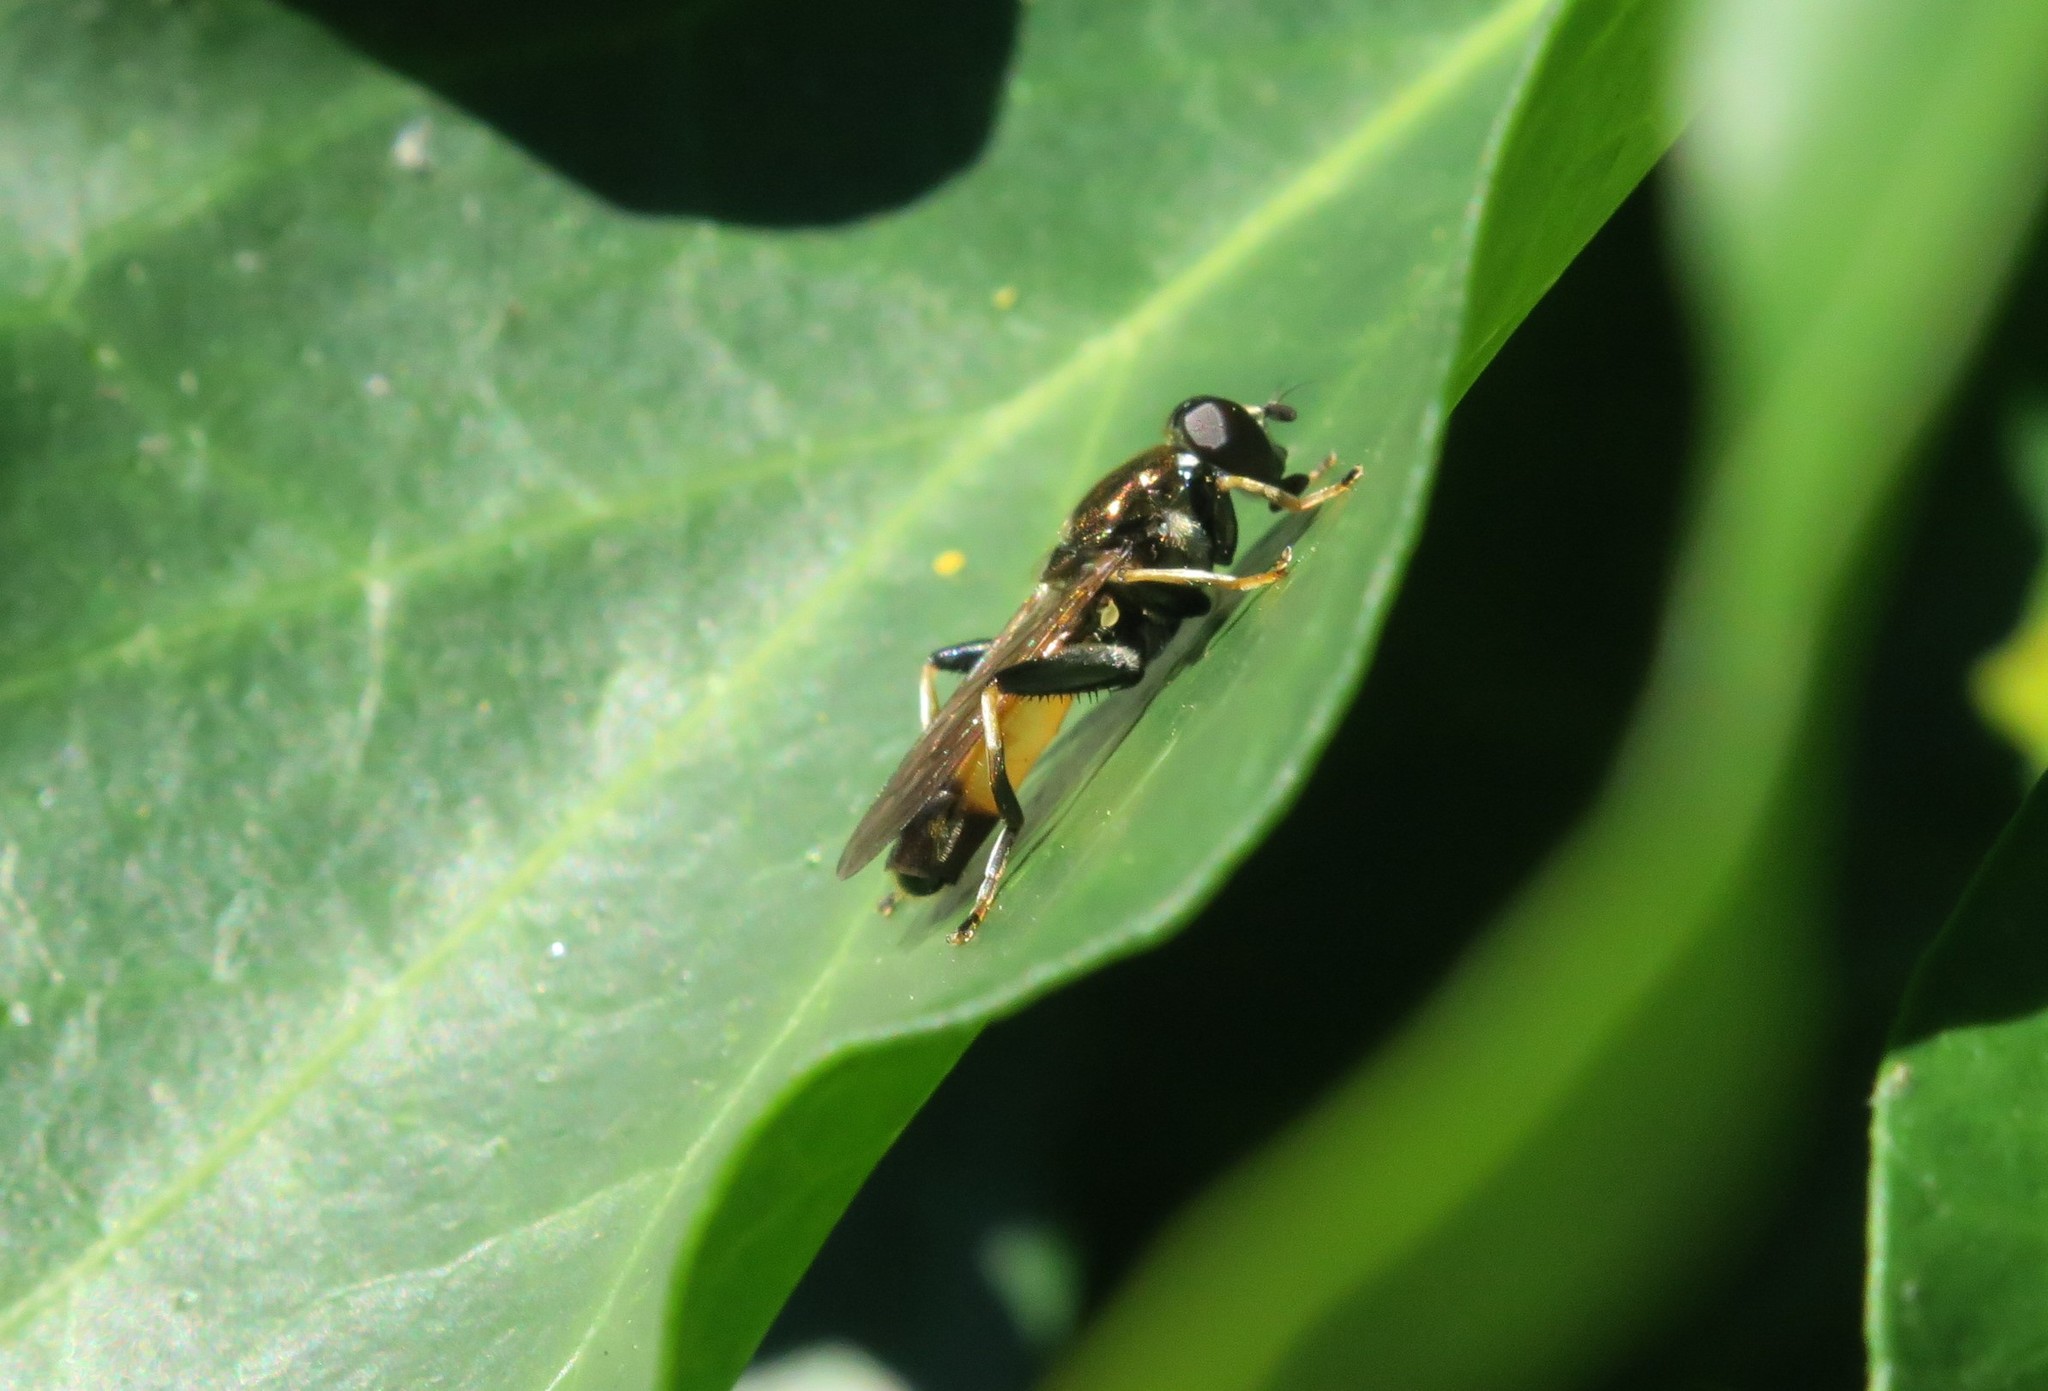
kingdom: Animalia
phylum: Arthropoda
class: Insecta
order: Diptera
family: Syrphidae
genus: Xylota
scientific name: Xylota segnis
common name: Brown-toed forest fly
